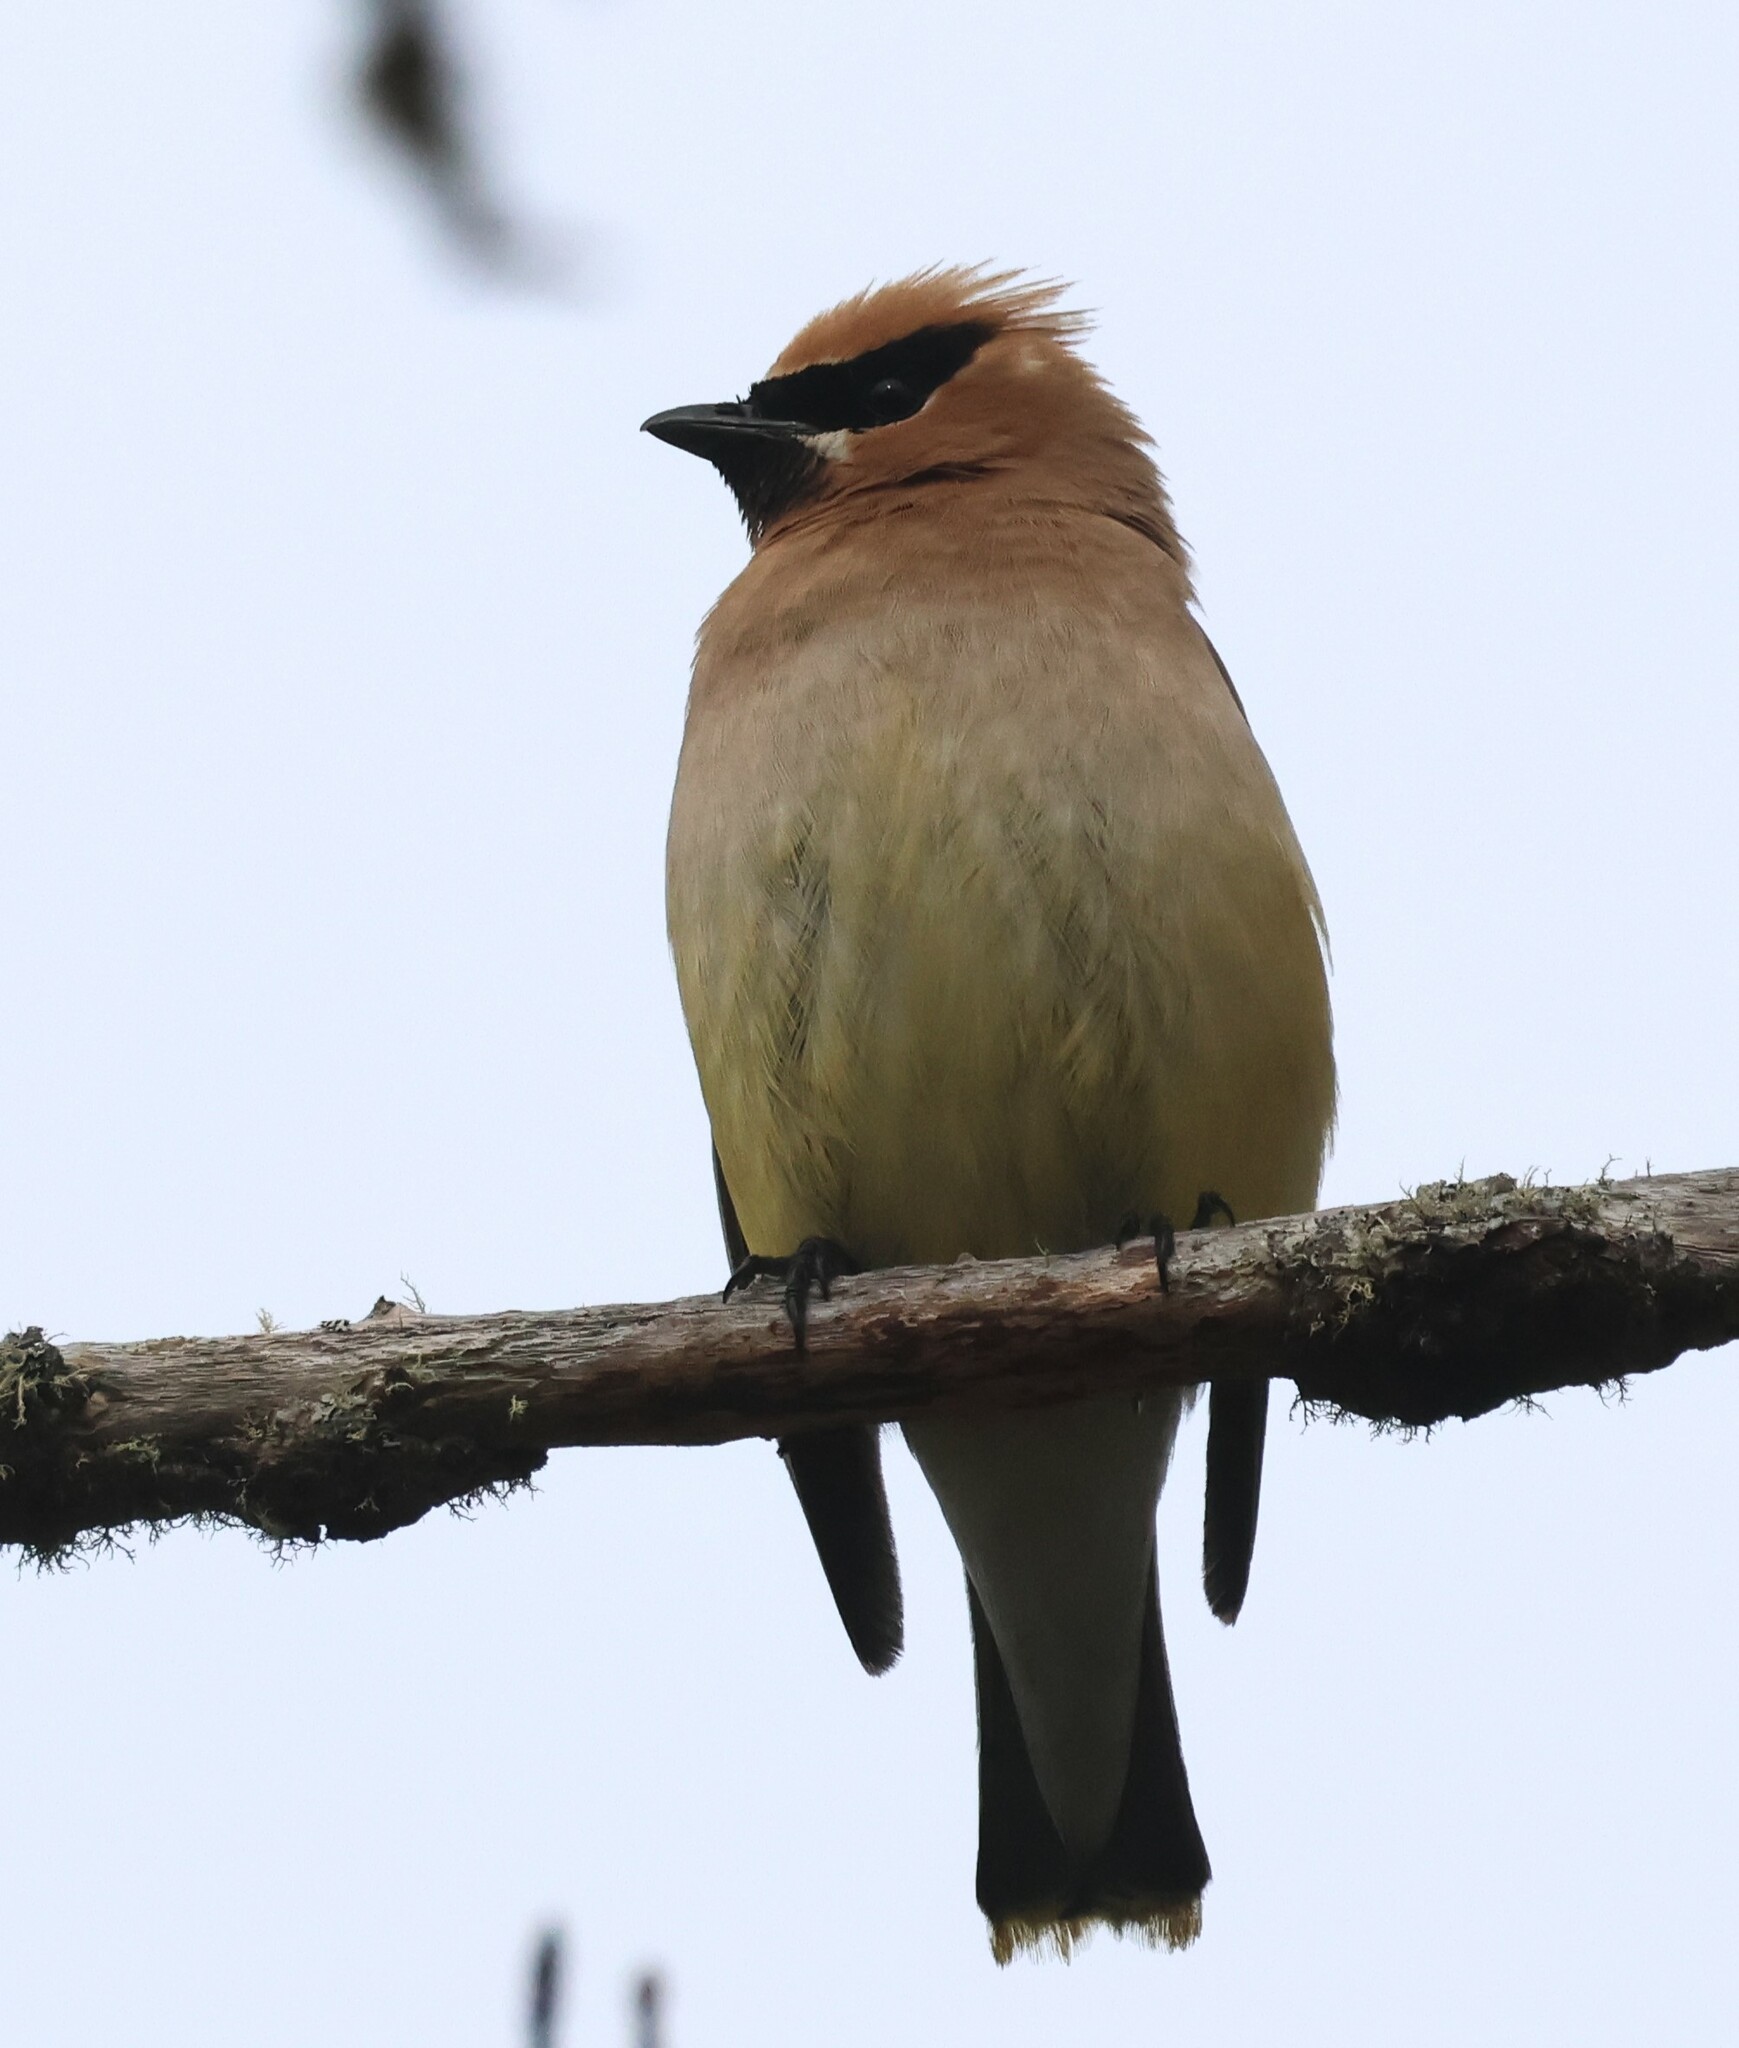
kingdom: Animalia
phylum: Chordata
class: Aves
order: Passeriformes
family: Bombycillidae
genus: Bombycilla
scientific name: Bombycilla cedrorum
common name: Cedar waxwing
